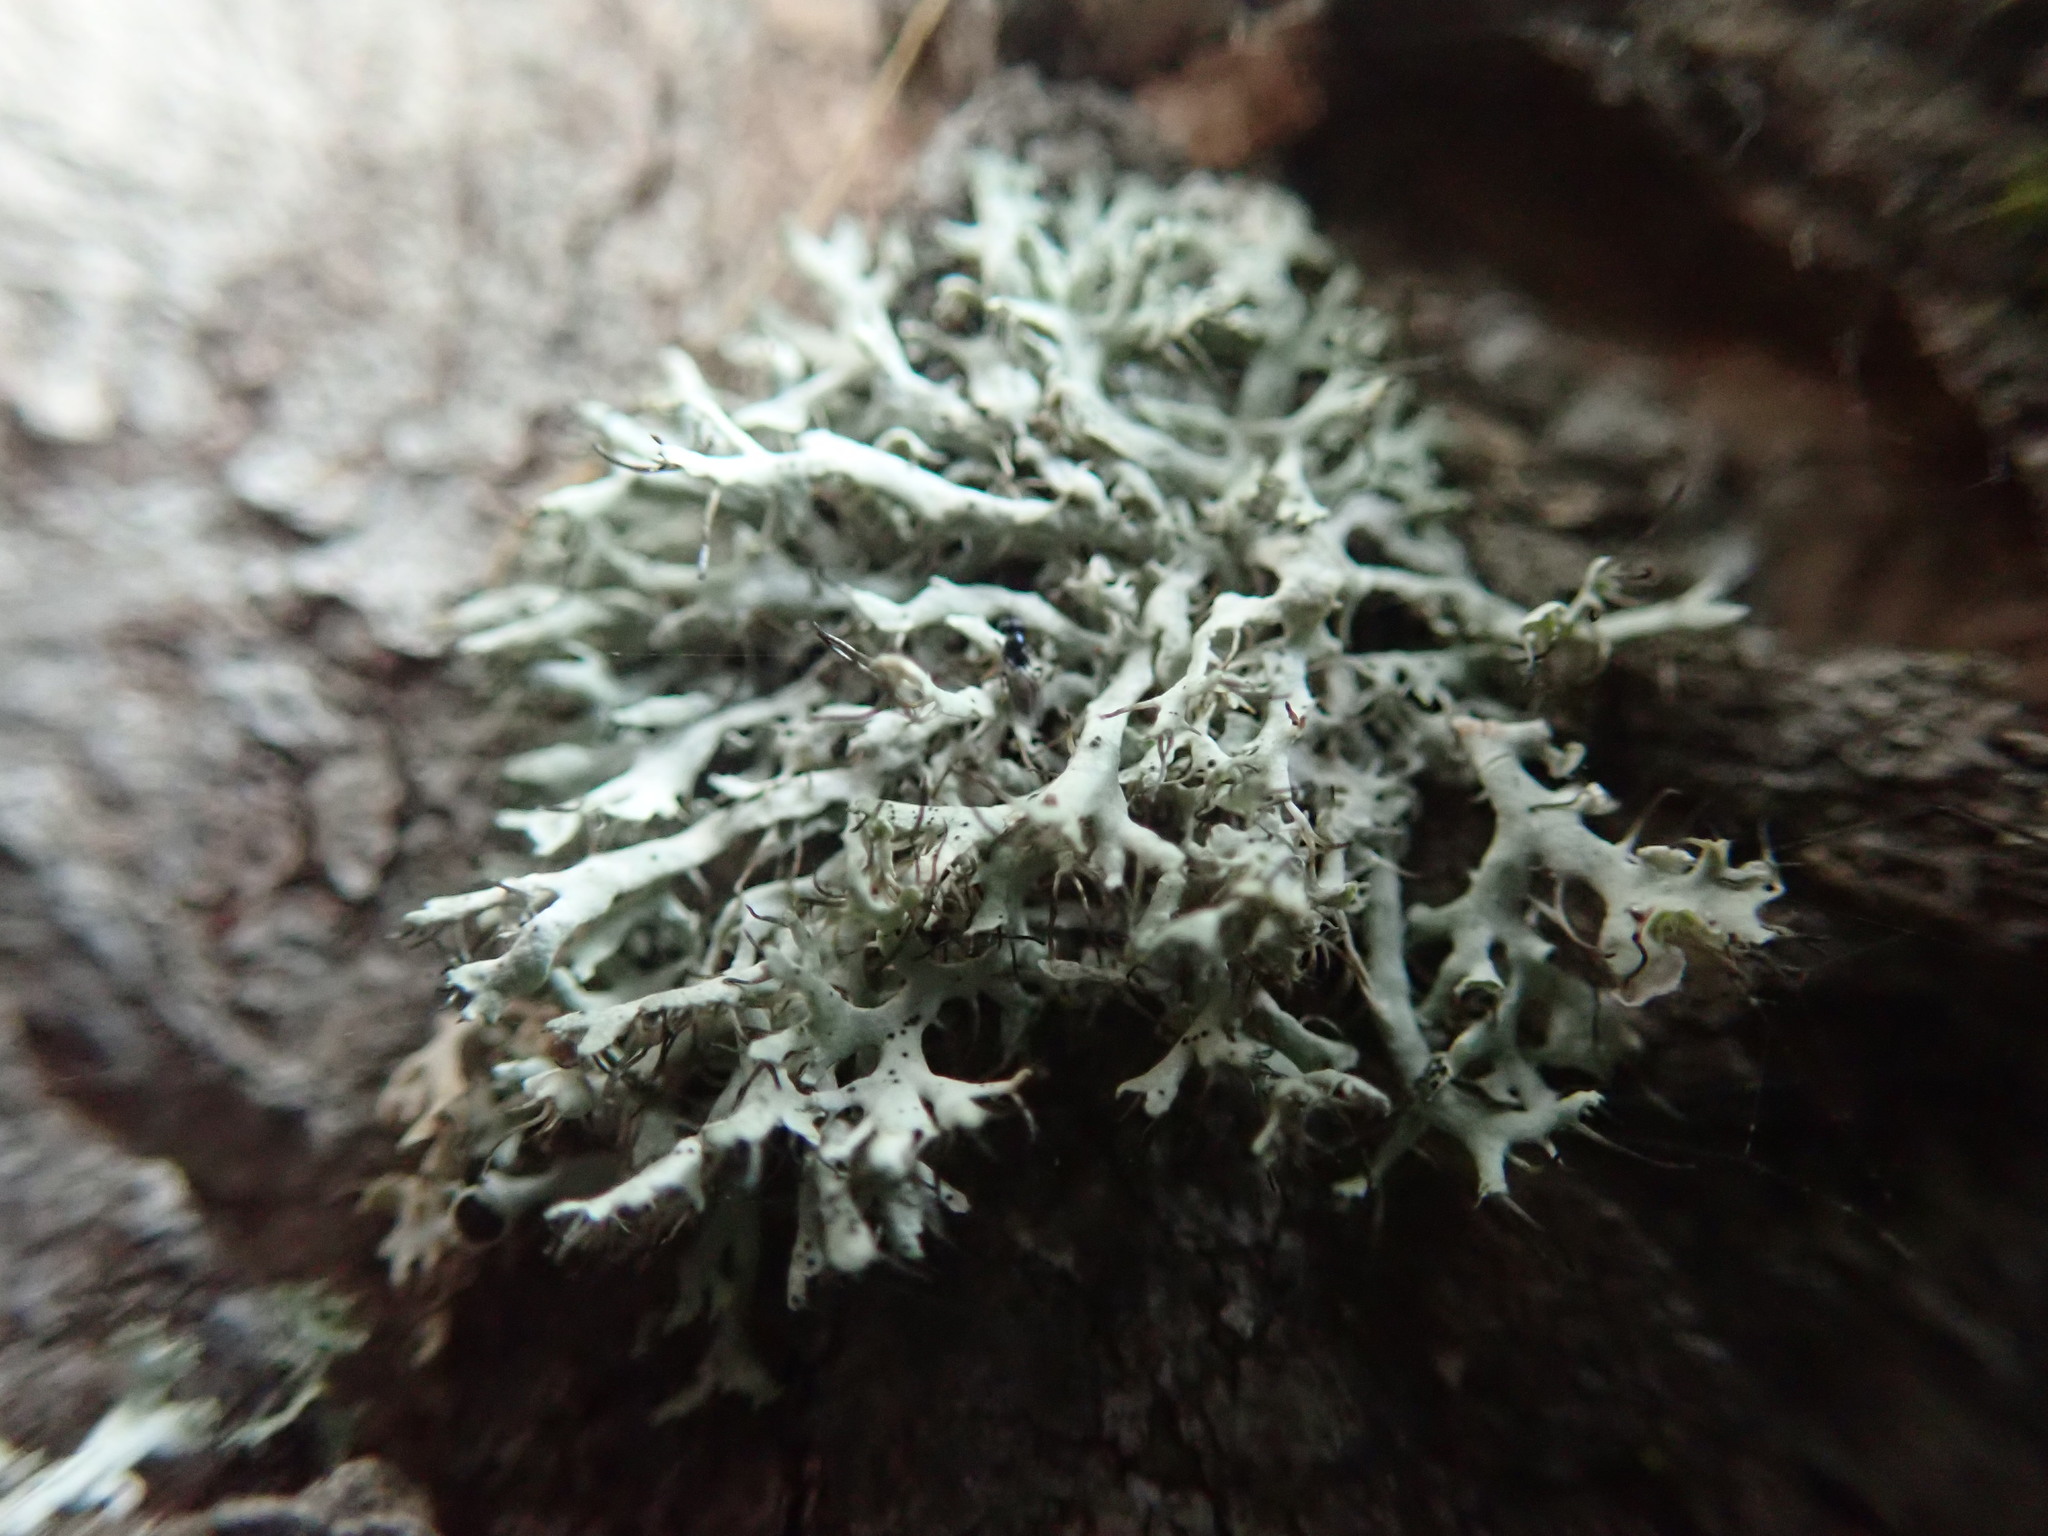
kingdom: Fungi
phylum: Ascomycota
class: Lecanoromycetes
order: Caliciales
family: Physciaceae
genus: Physcia
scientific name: Physcia tenella
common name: Fringed rosette lichen
